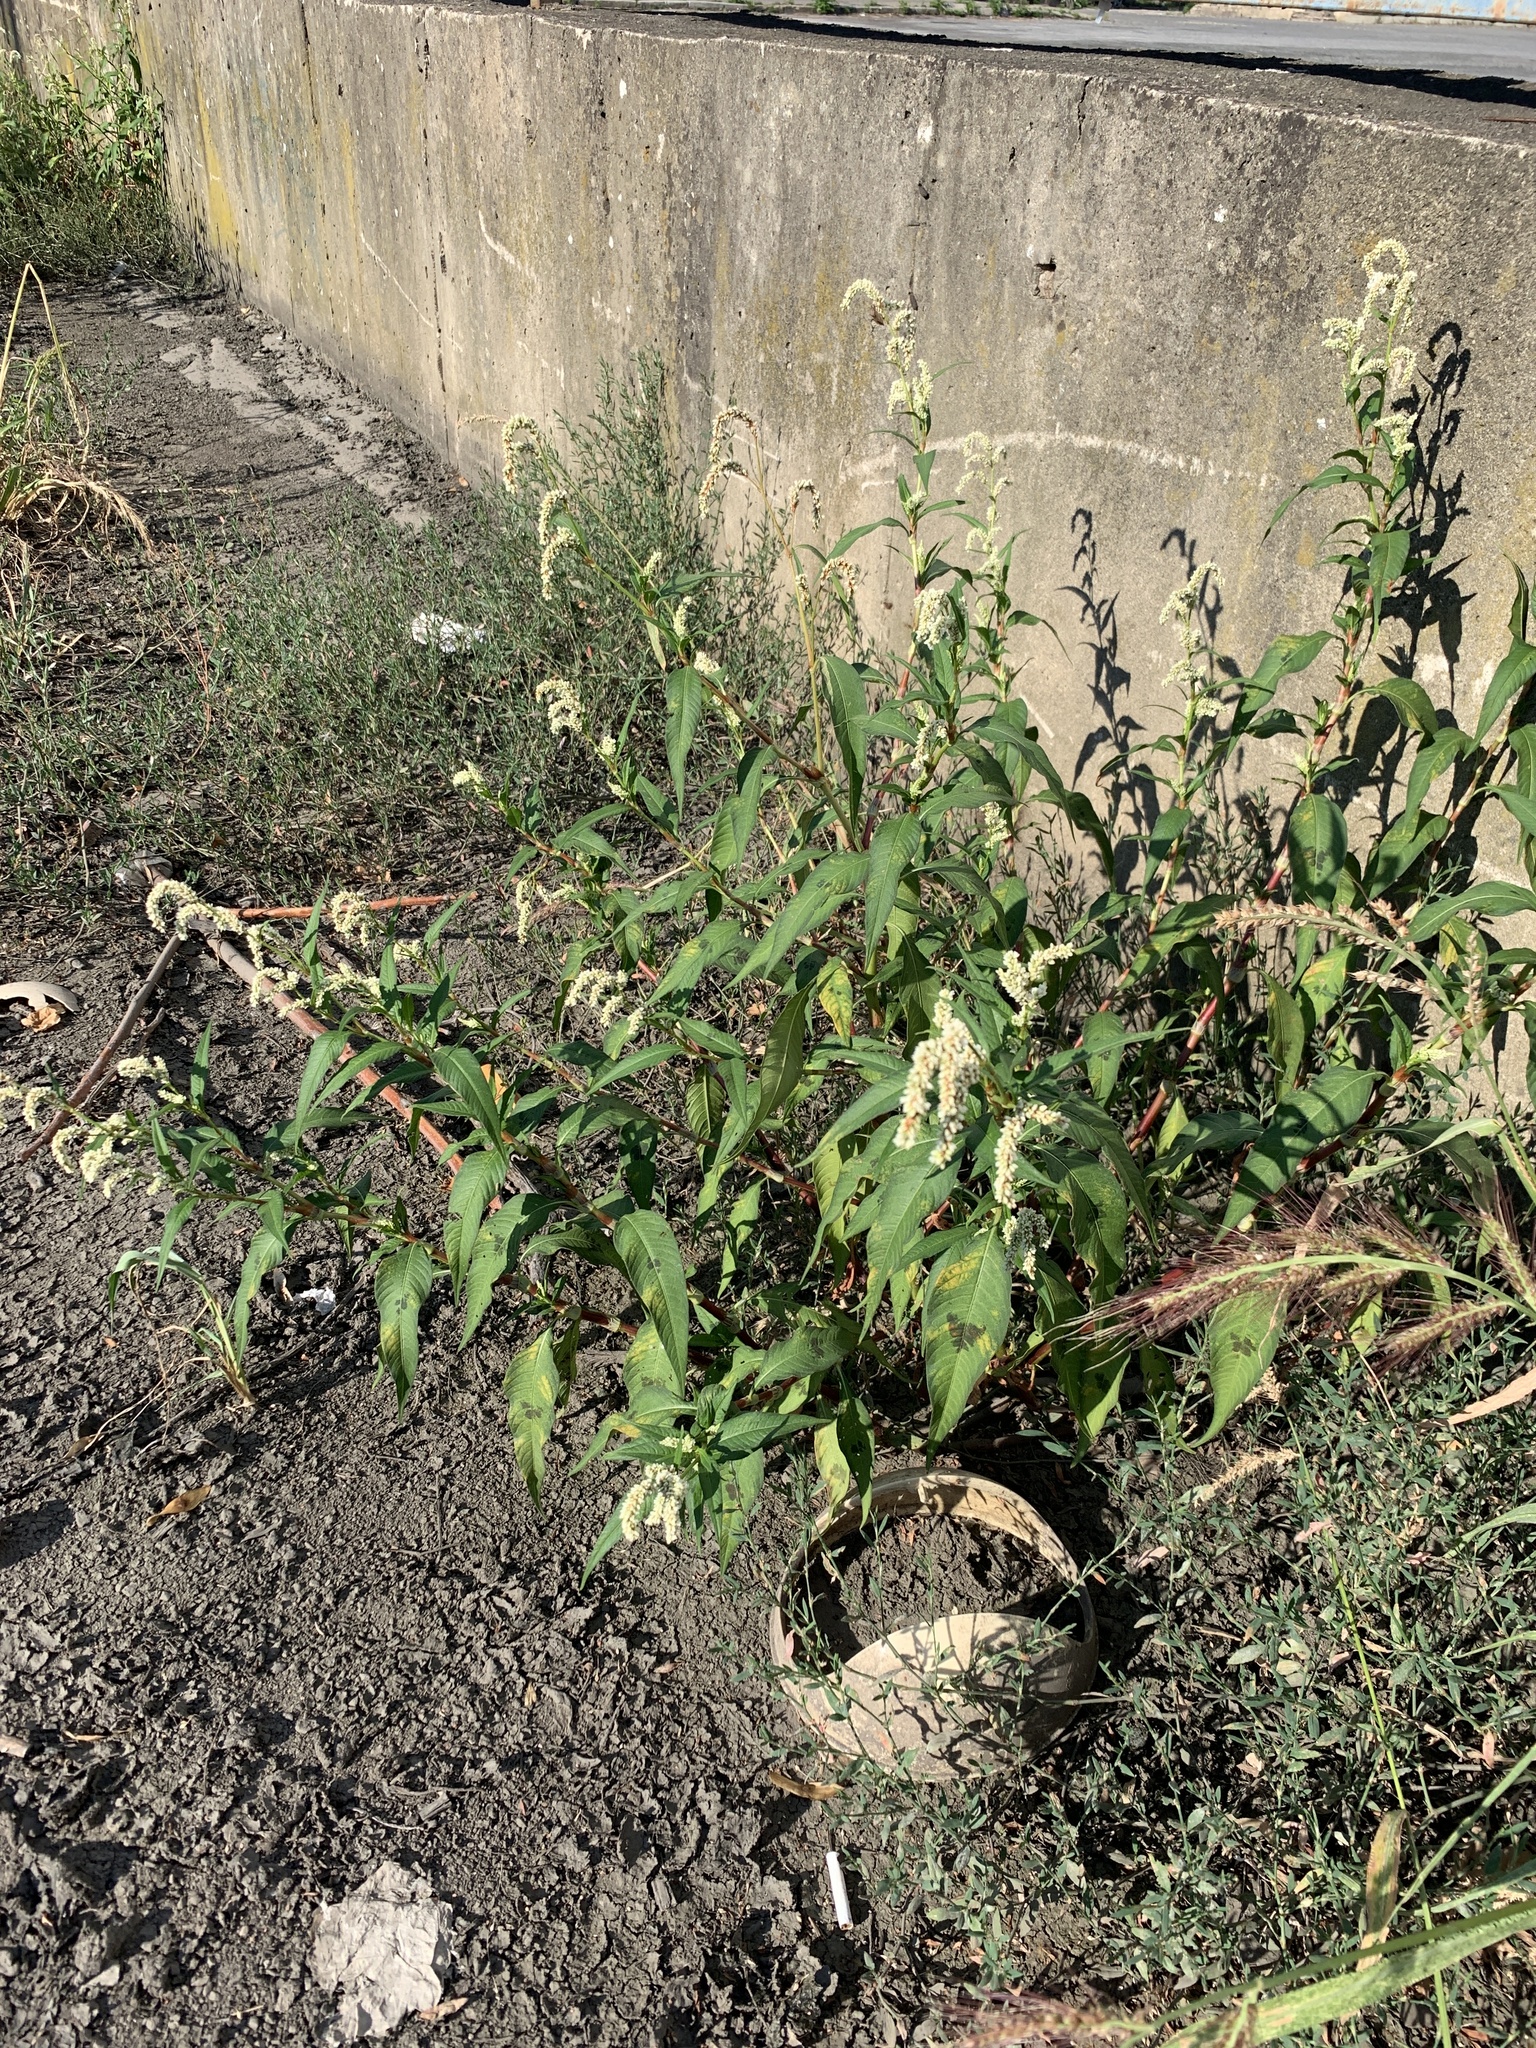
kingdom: Plantae
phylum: Tracheophyta
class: Magnoliopsida
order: Caryophyllales
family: Polygonaceae
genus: Persicaria
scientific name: Persicaria lapathifolia
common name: Curlytop knotweed
